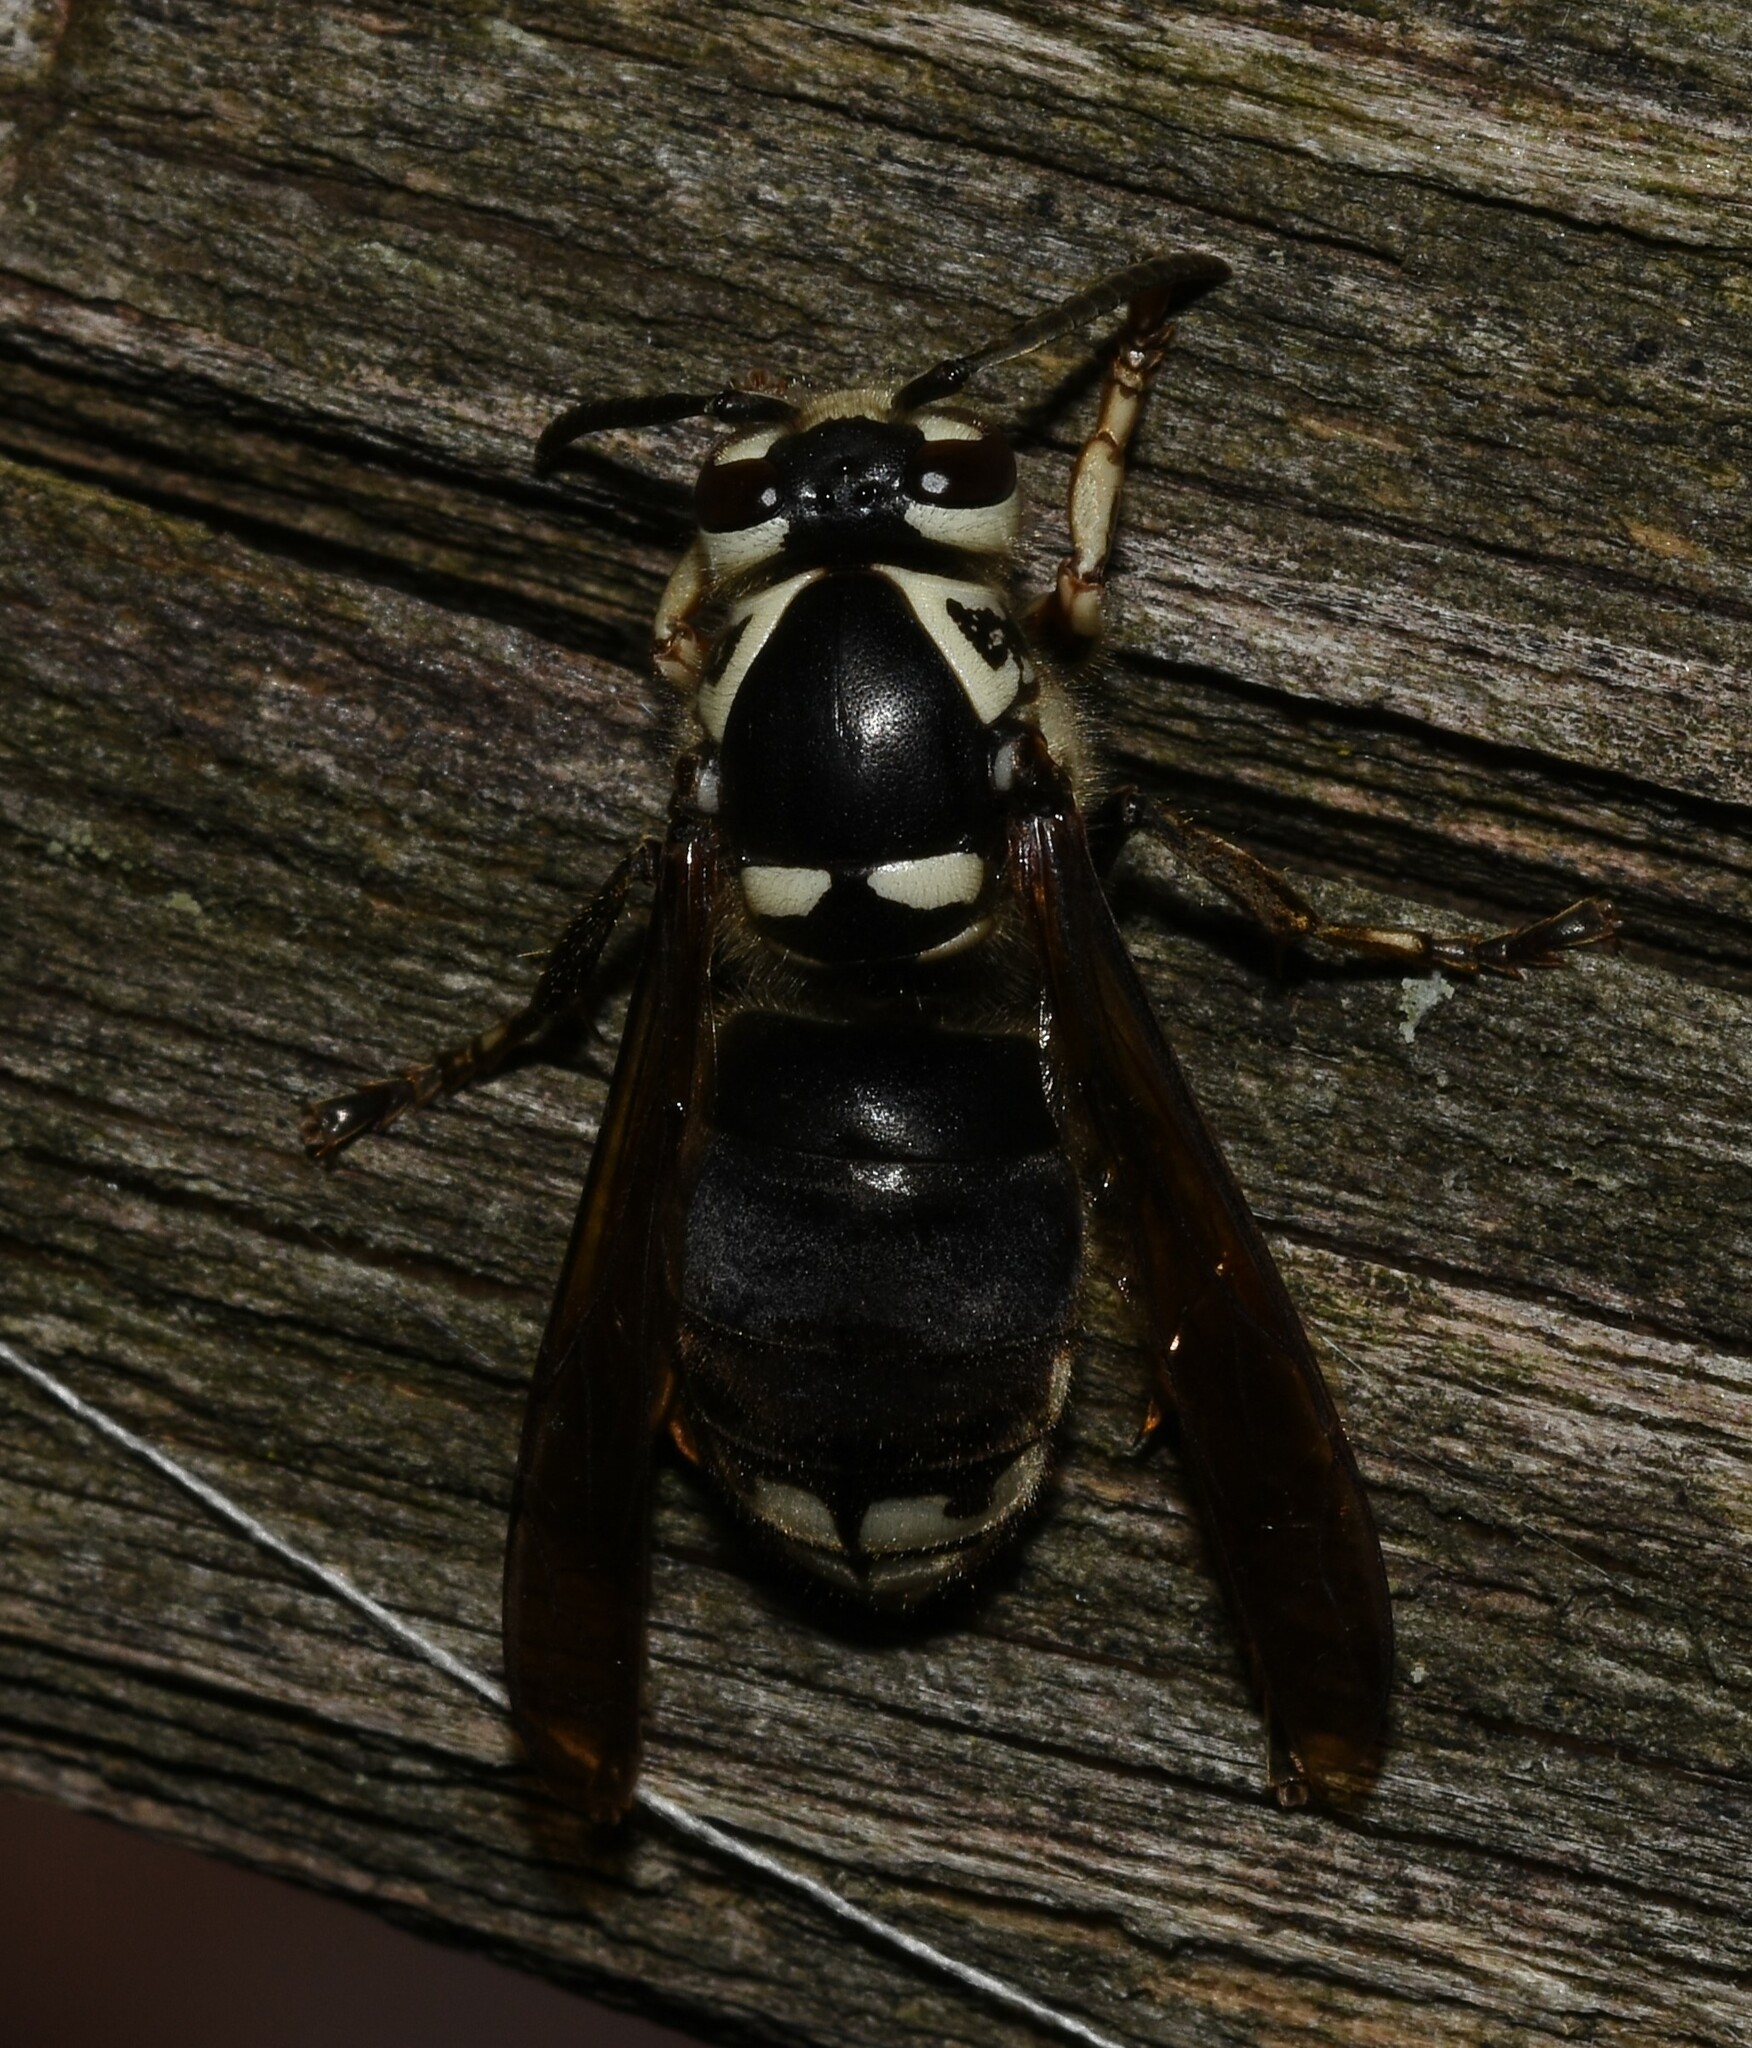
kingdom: Animalia
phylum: Arthropoda
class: Insecta
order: Hymenoptera
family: Vespidae
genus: Dolichovespula
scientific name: Dolichovespula maculata
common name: Bald-faced hornet
